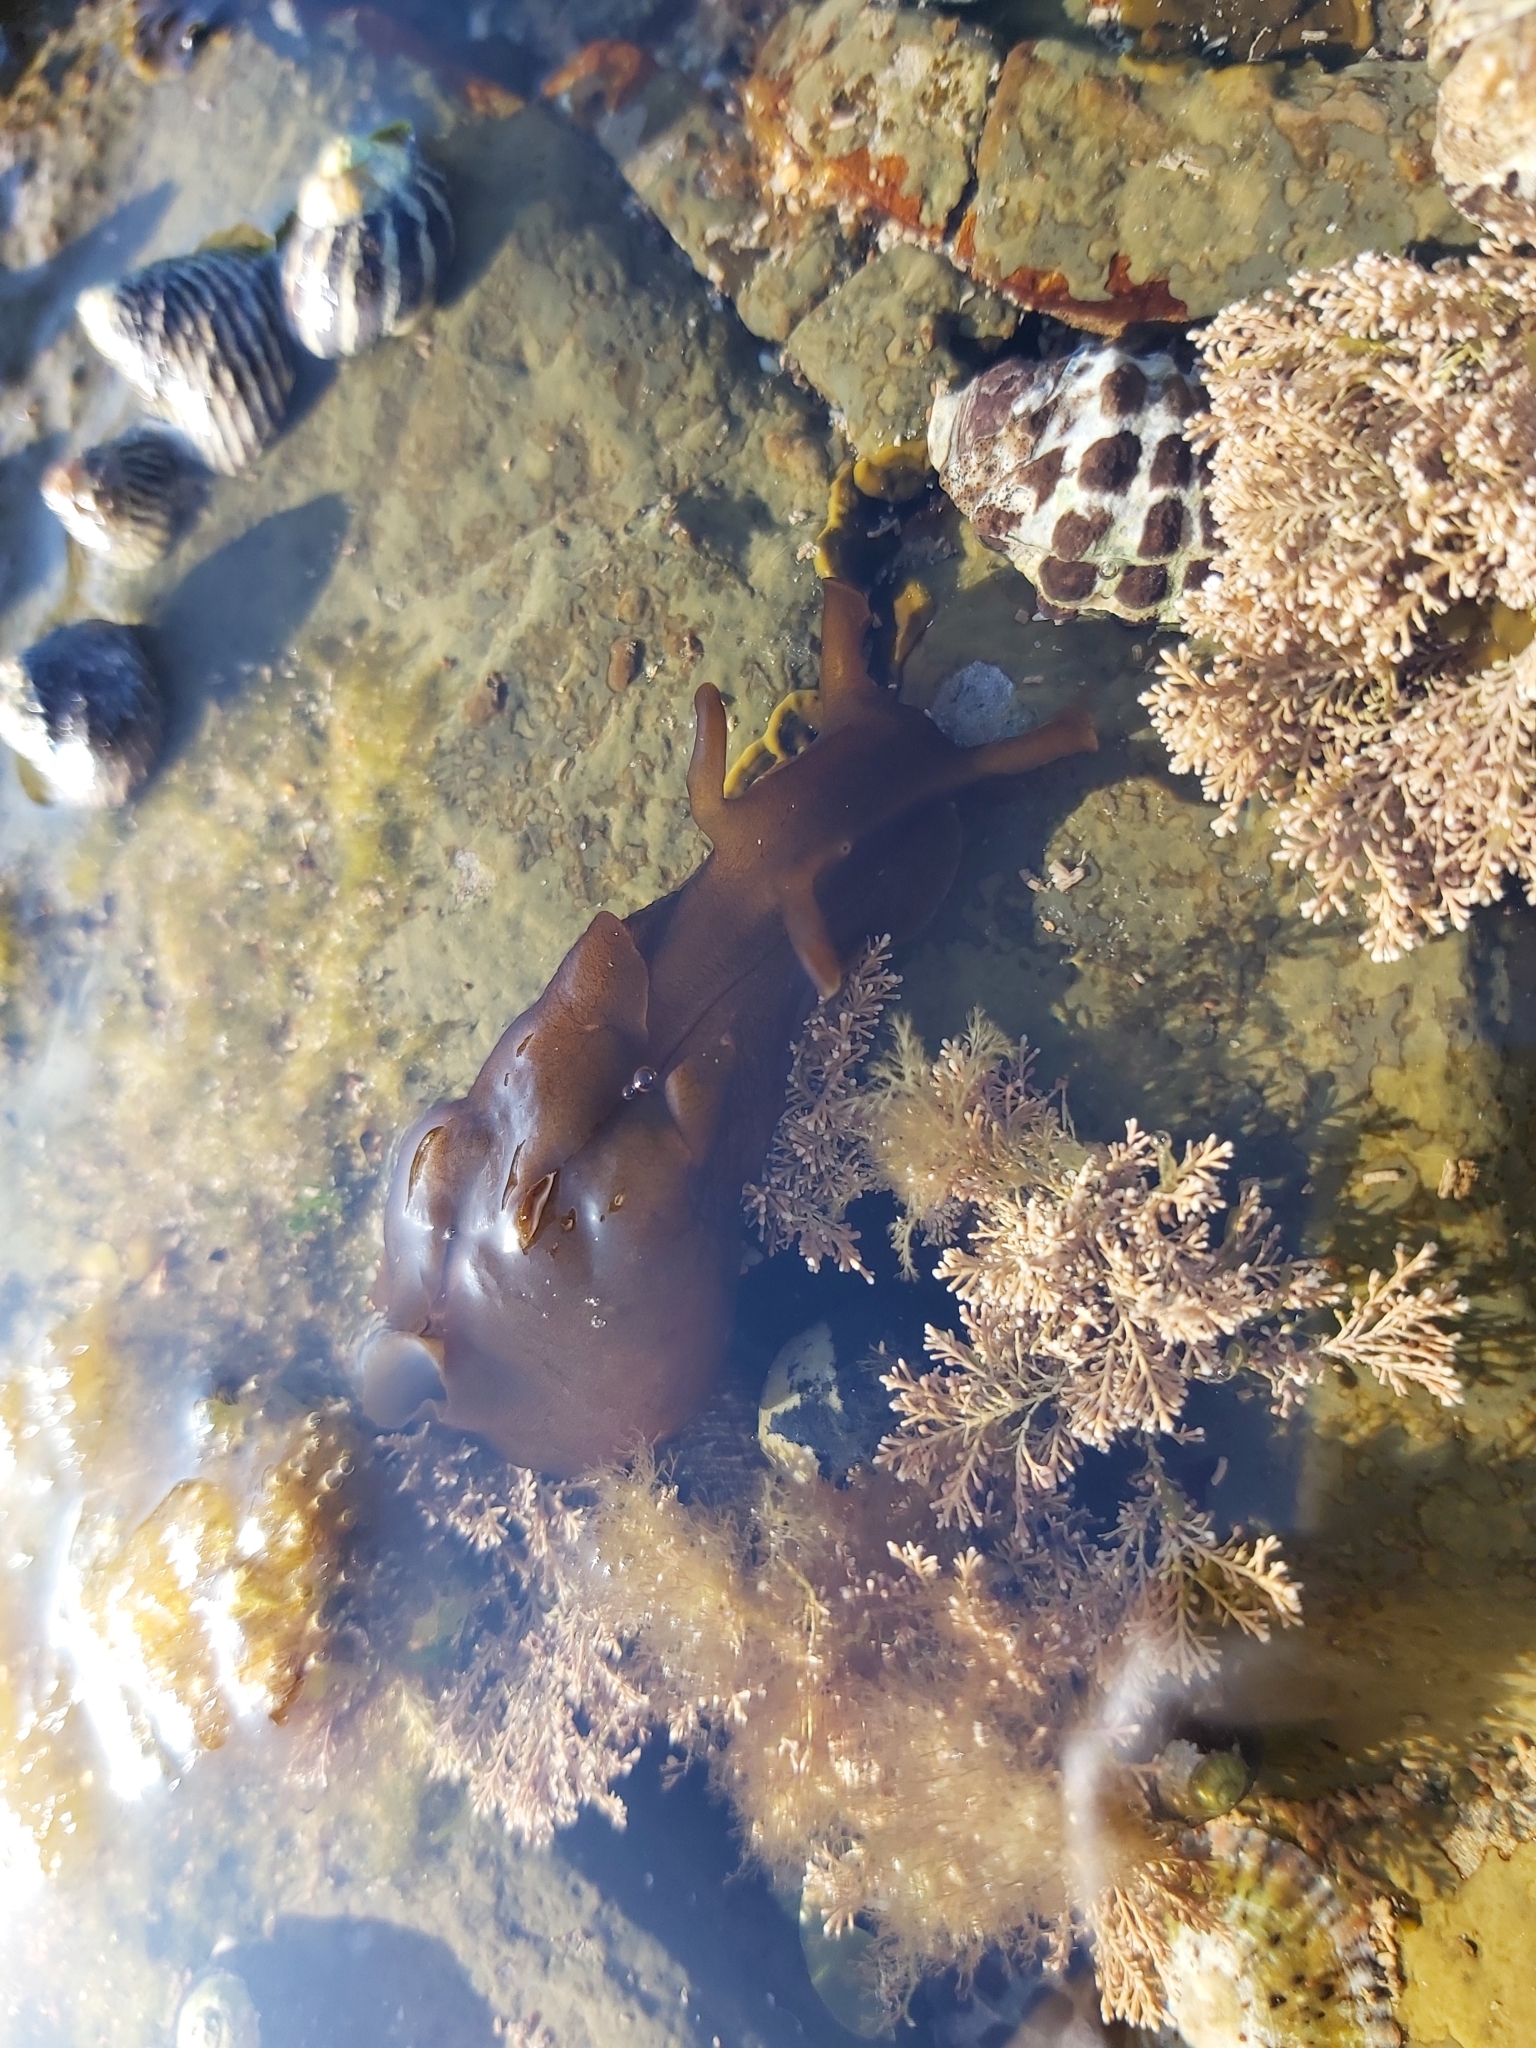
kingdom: Animalia
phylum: Mollusca
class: Gastropoda
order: Aplysiida
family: Aplysiidae
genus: Aplysia
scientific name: Aplysia juliana
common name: Walking sea hare
